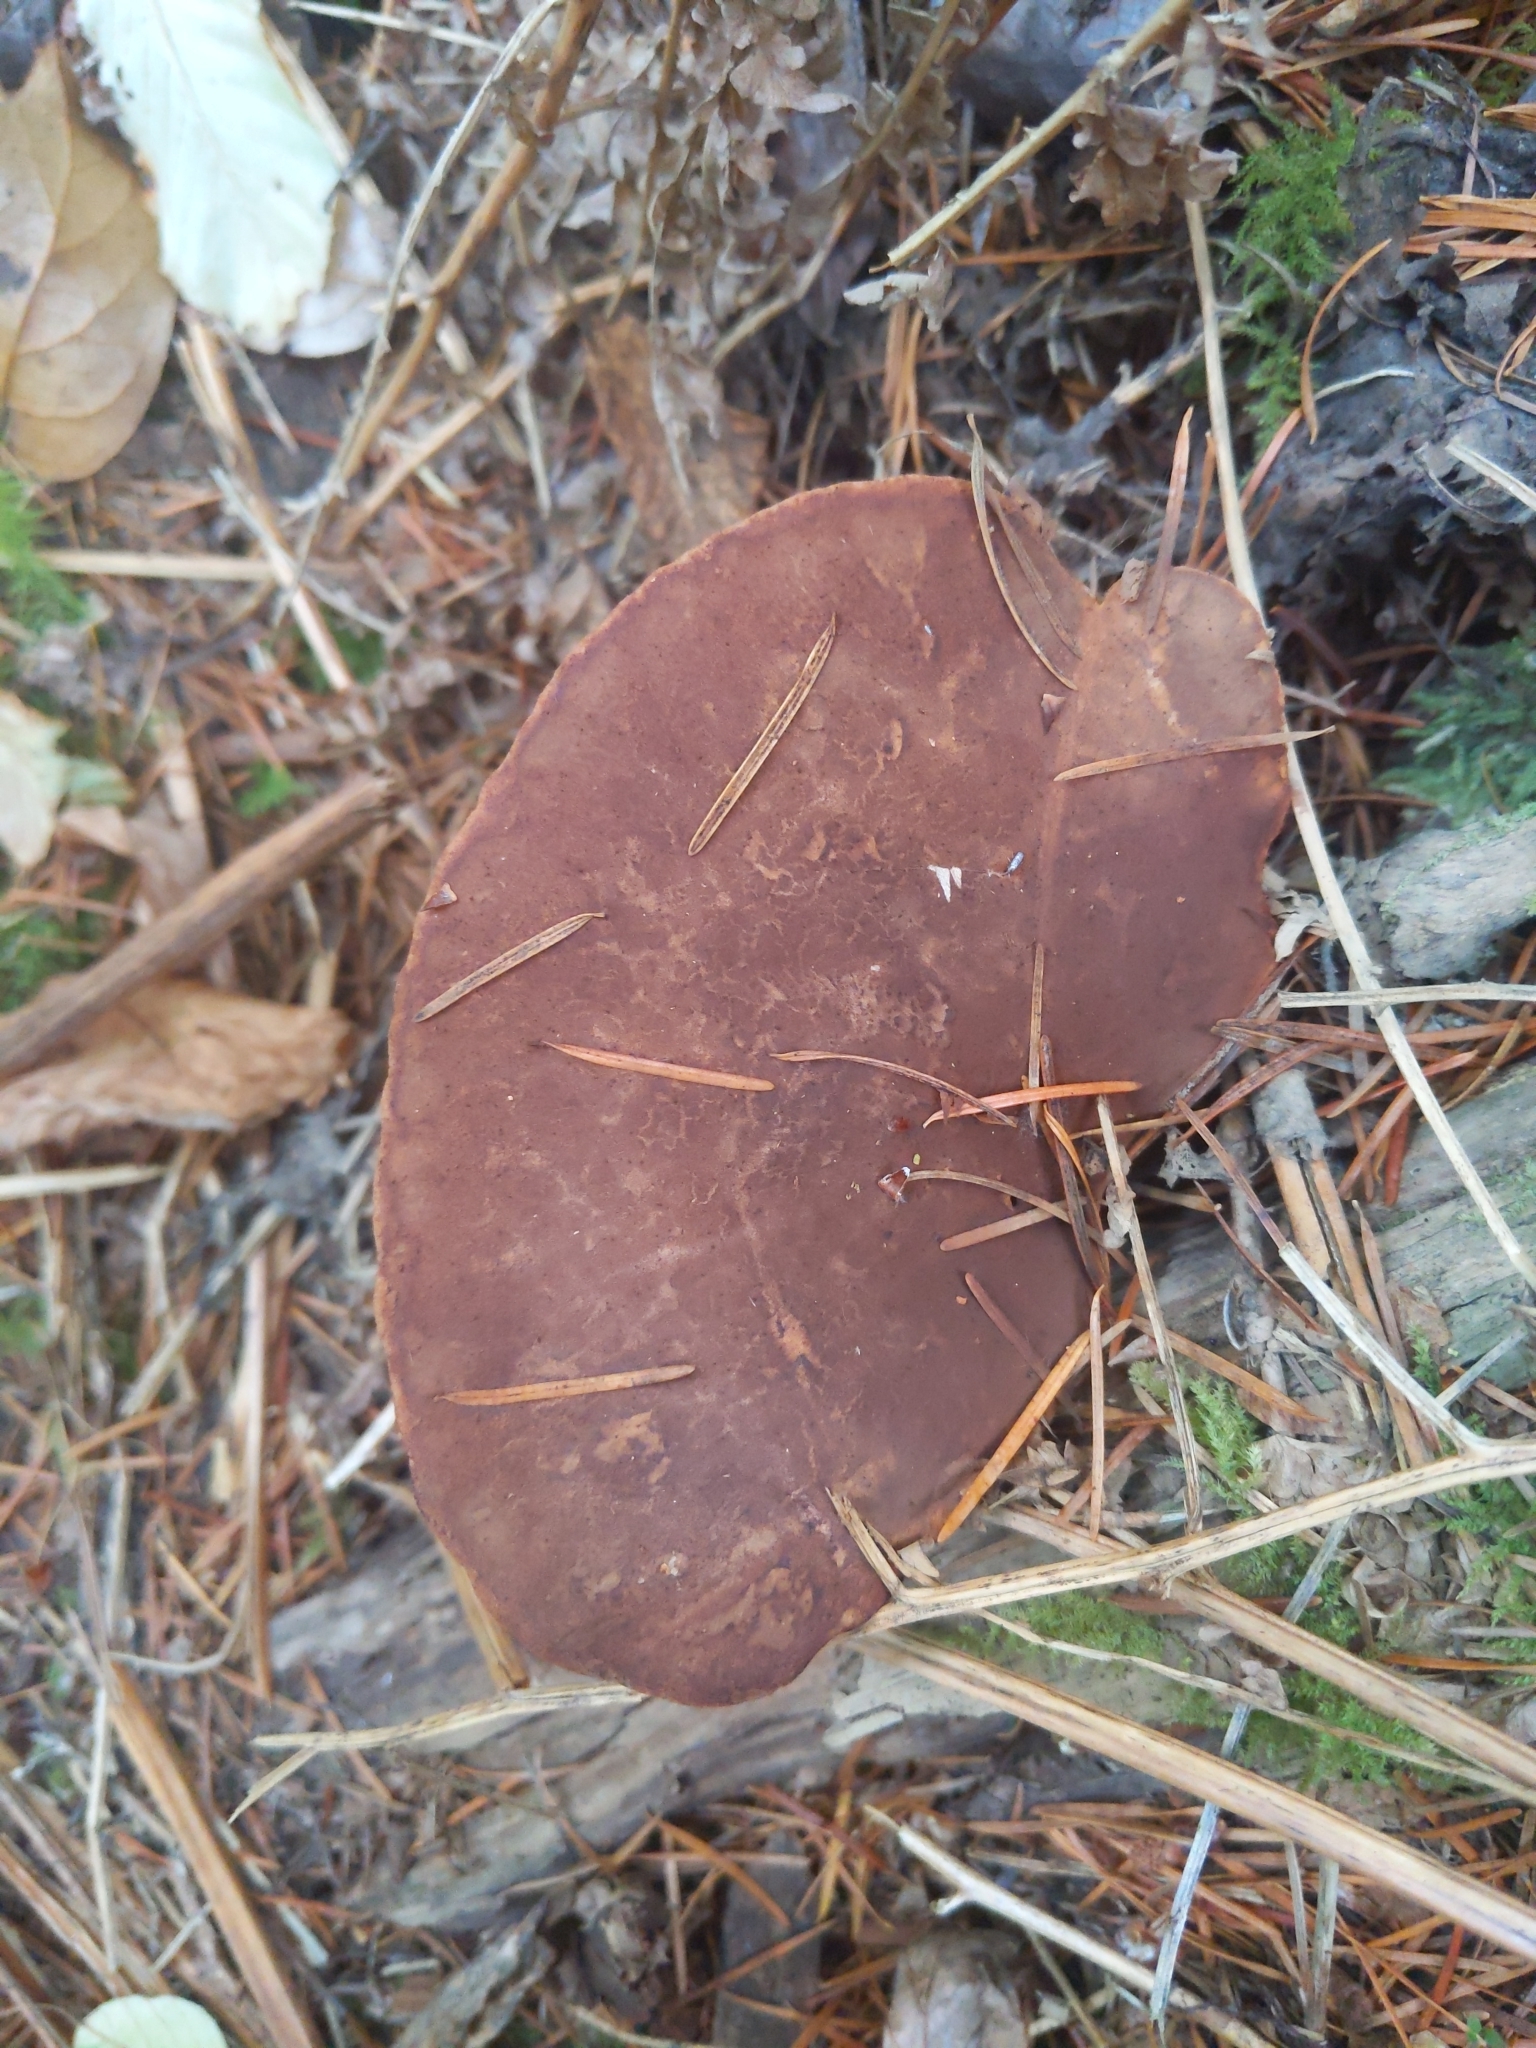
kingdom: Fungi
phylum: Basidiomycota
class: Agaricomycetes
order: Boletales
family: Tapinellaceae
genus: Tapinella
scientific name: Tapinella atrotomentosa
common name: Velvet rollrim
